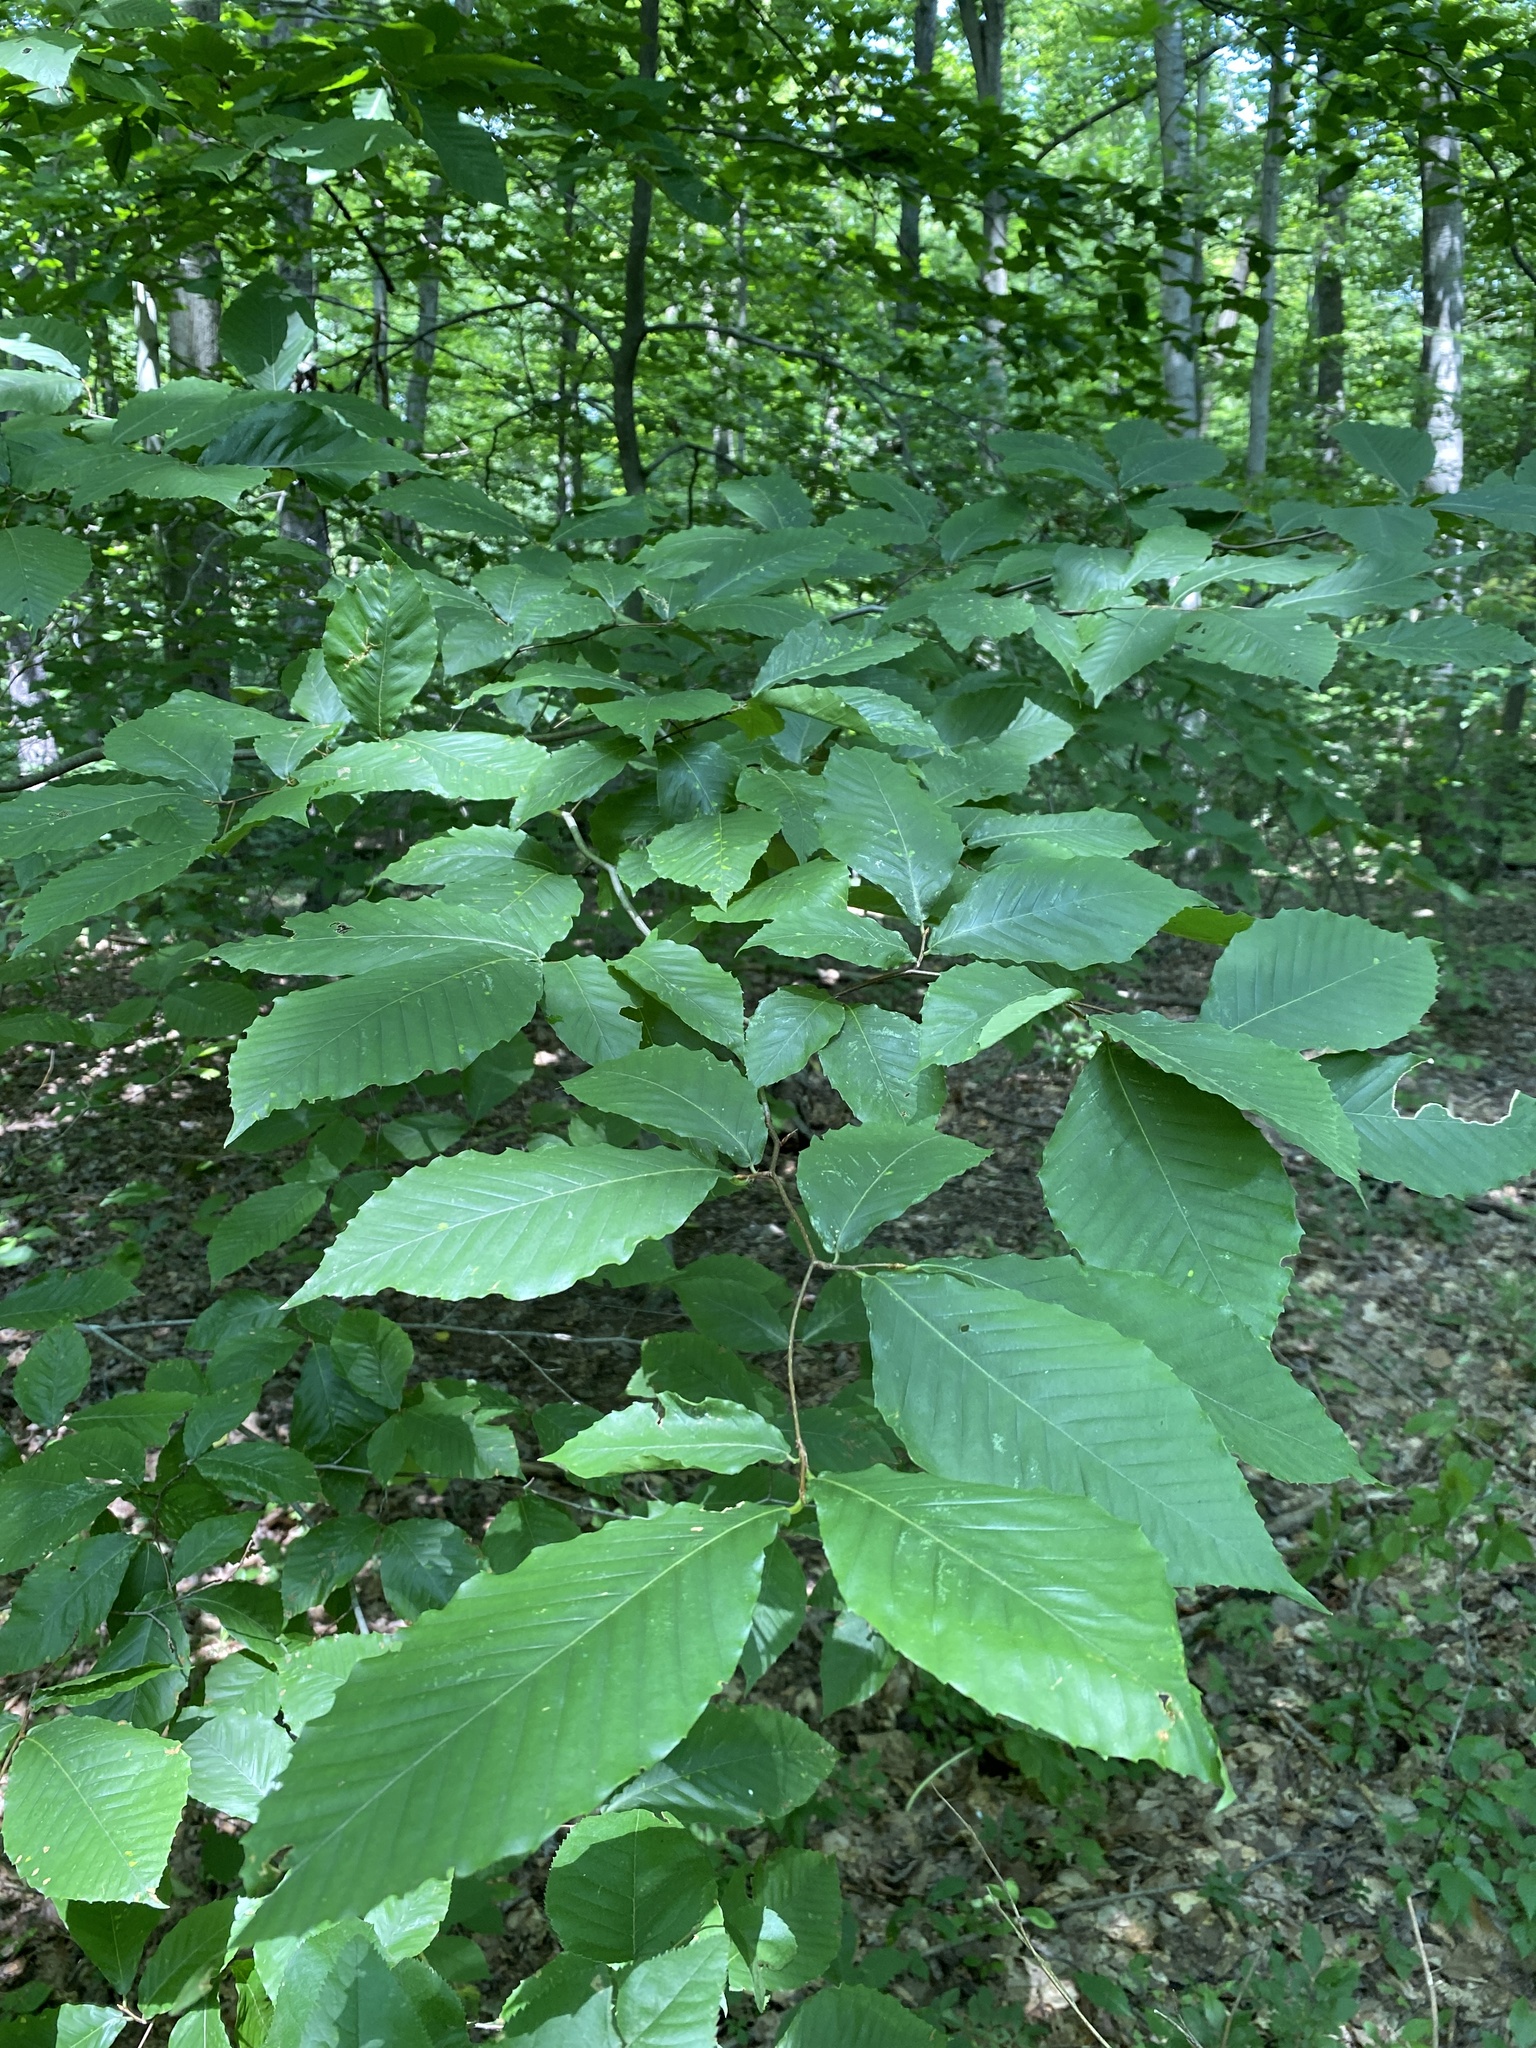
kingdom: Plantae
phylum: Tracheophyta
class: Magnoliopsida
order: Fagales
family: Fagaceae
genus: Fagus
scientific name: Fagus grandifolia
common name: American beech
